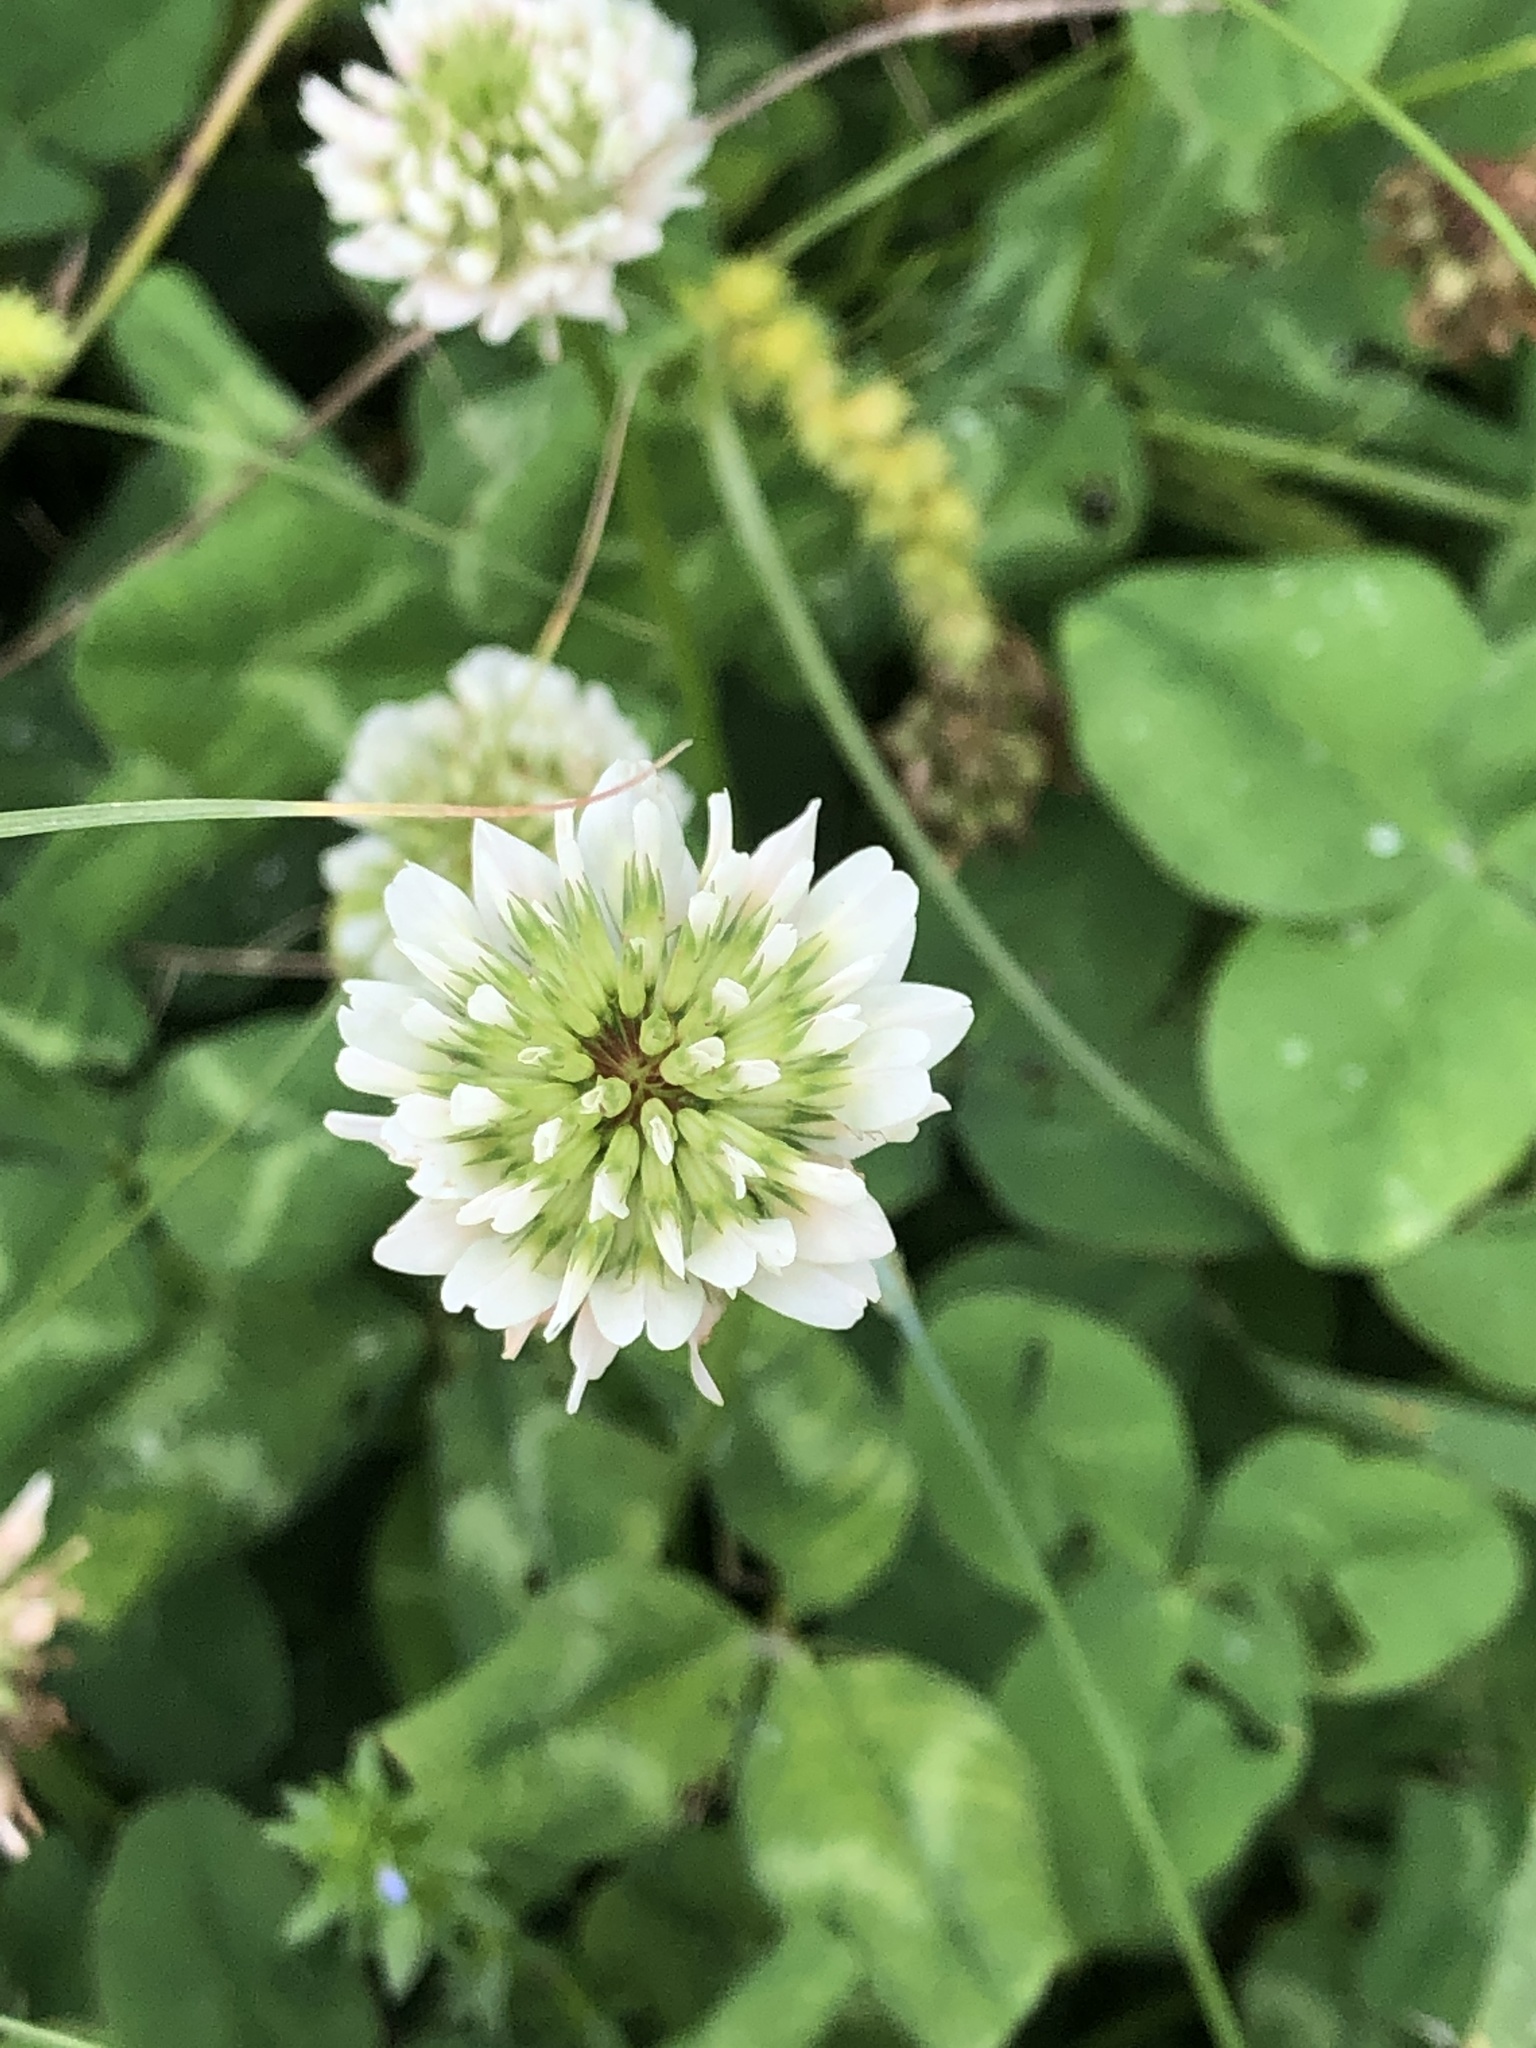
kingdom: Plantae
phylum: Tracheophyta
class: Magnoliopsida
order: Fabales
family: Fabaceae
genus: Trifolium
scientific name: Trifolium repens
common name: White clover
